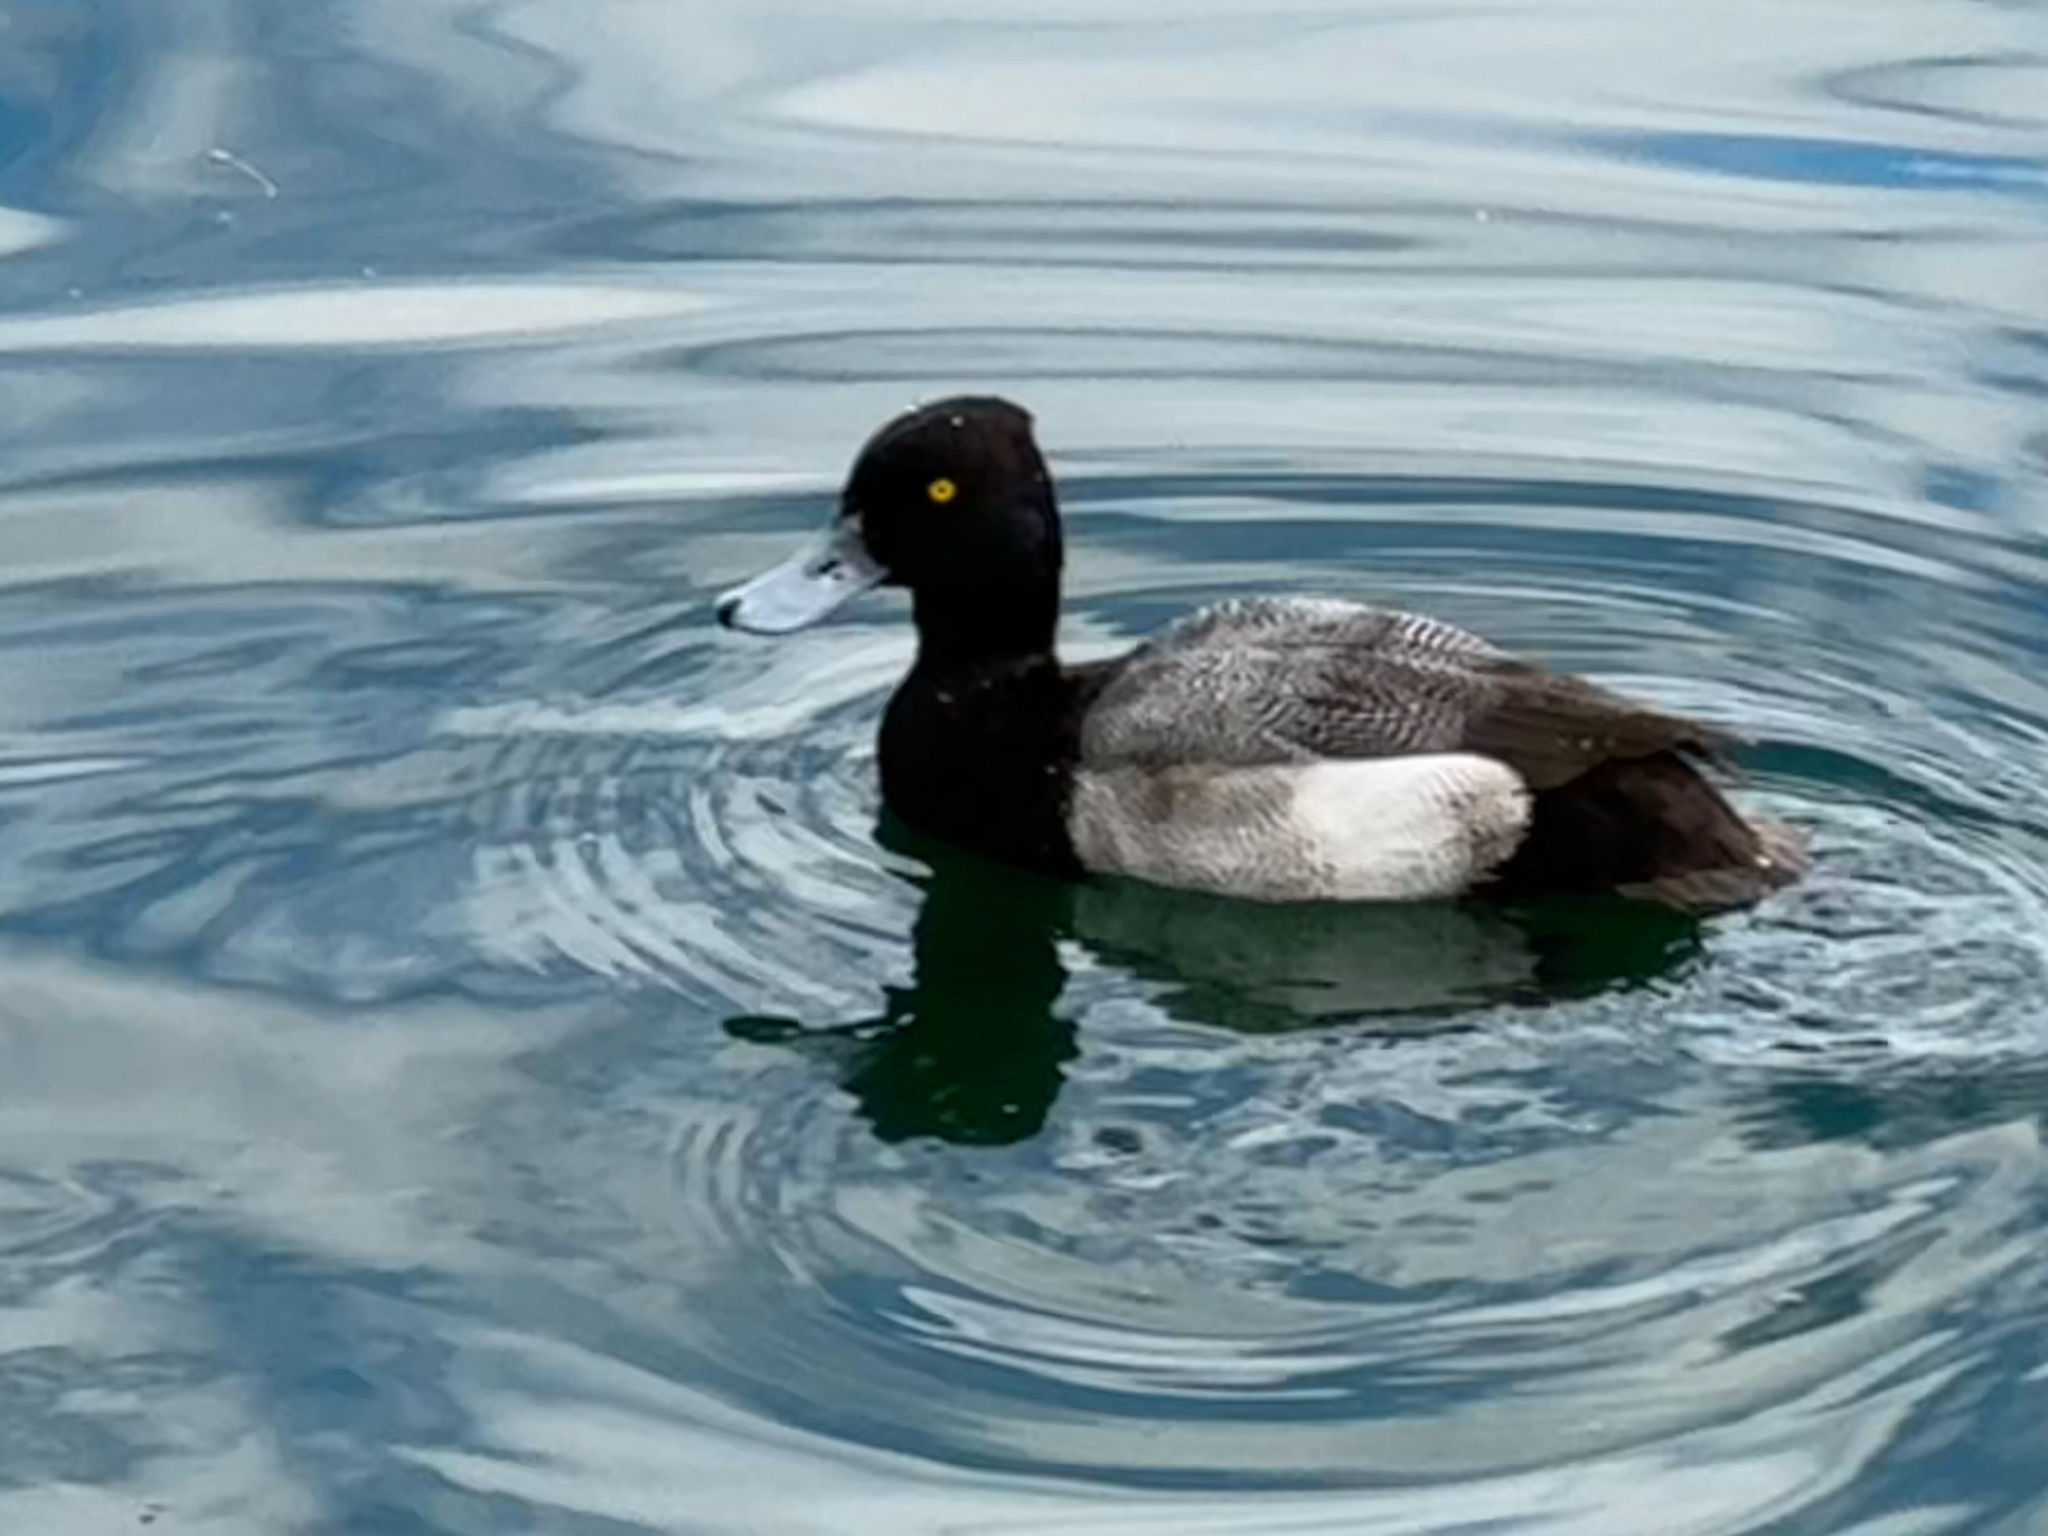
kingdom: Animalia
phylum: Chordata
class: Aves
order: Anseriformes
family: Anatidae
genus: Aythya
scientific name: Aythya affinis
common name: Lesser scaup
